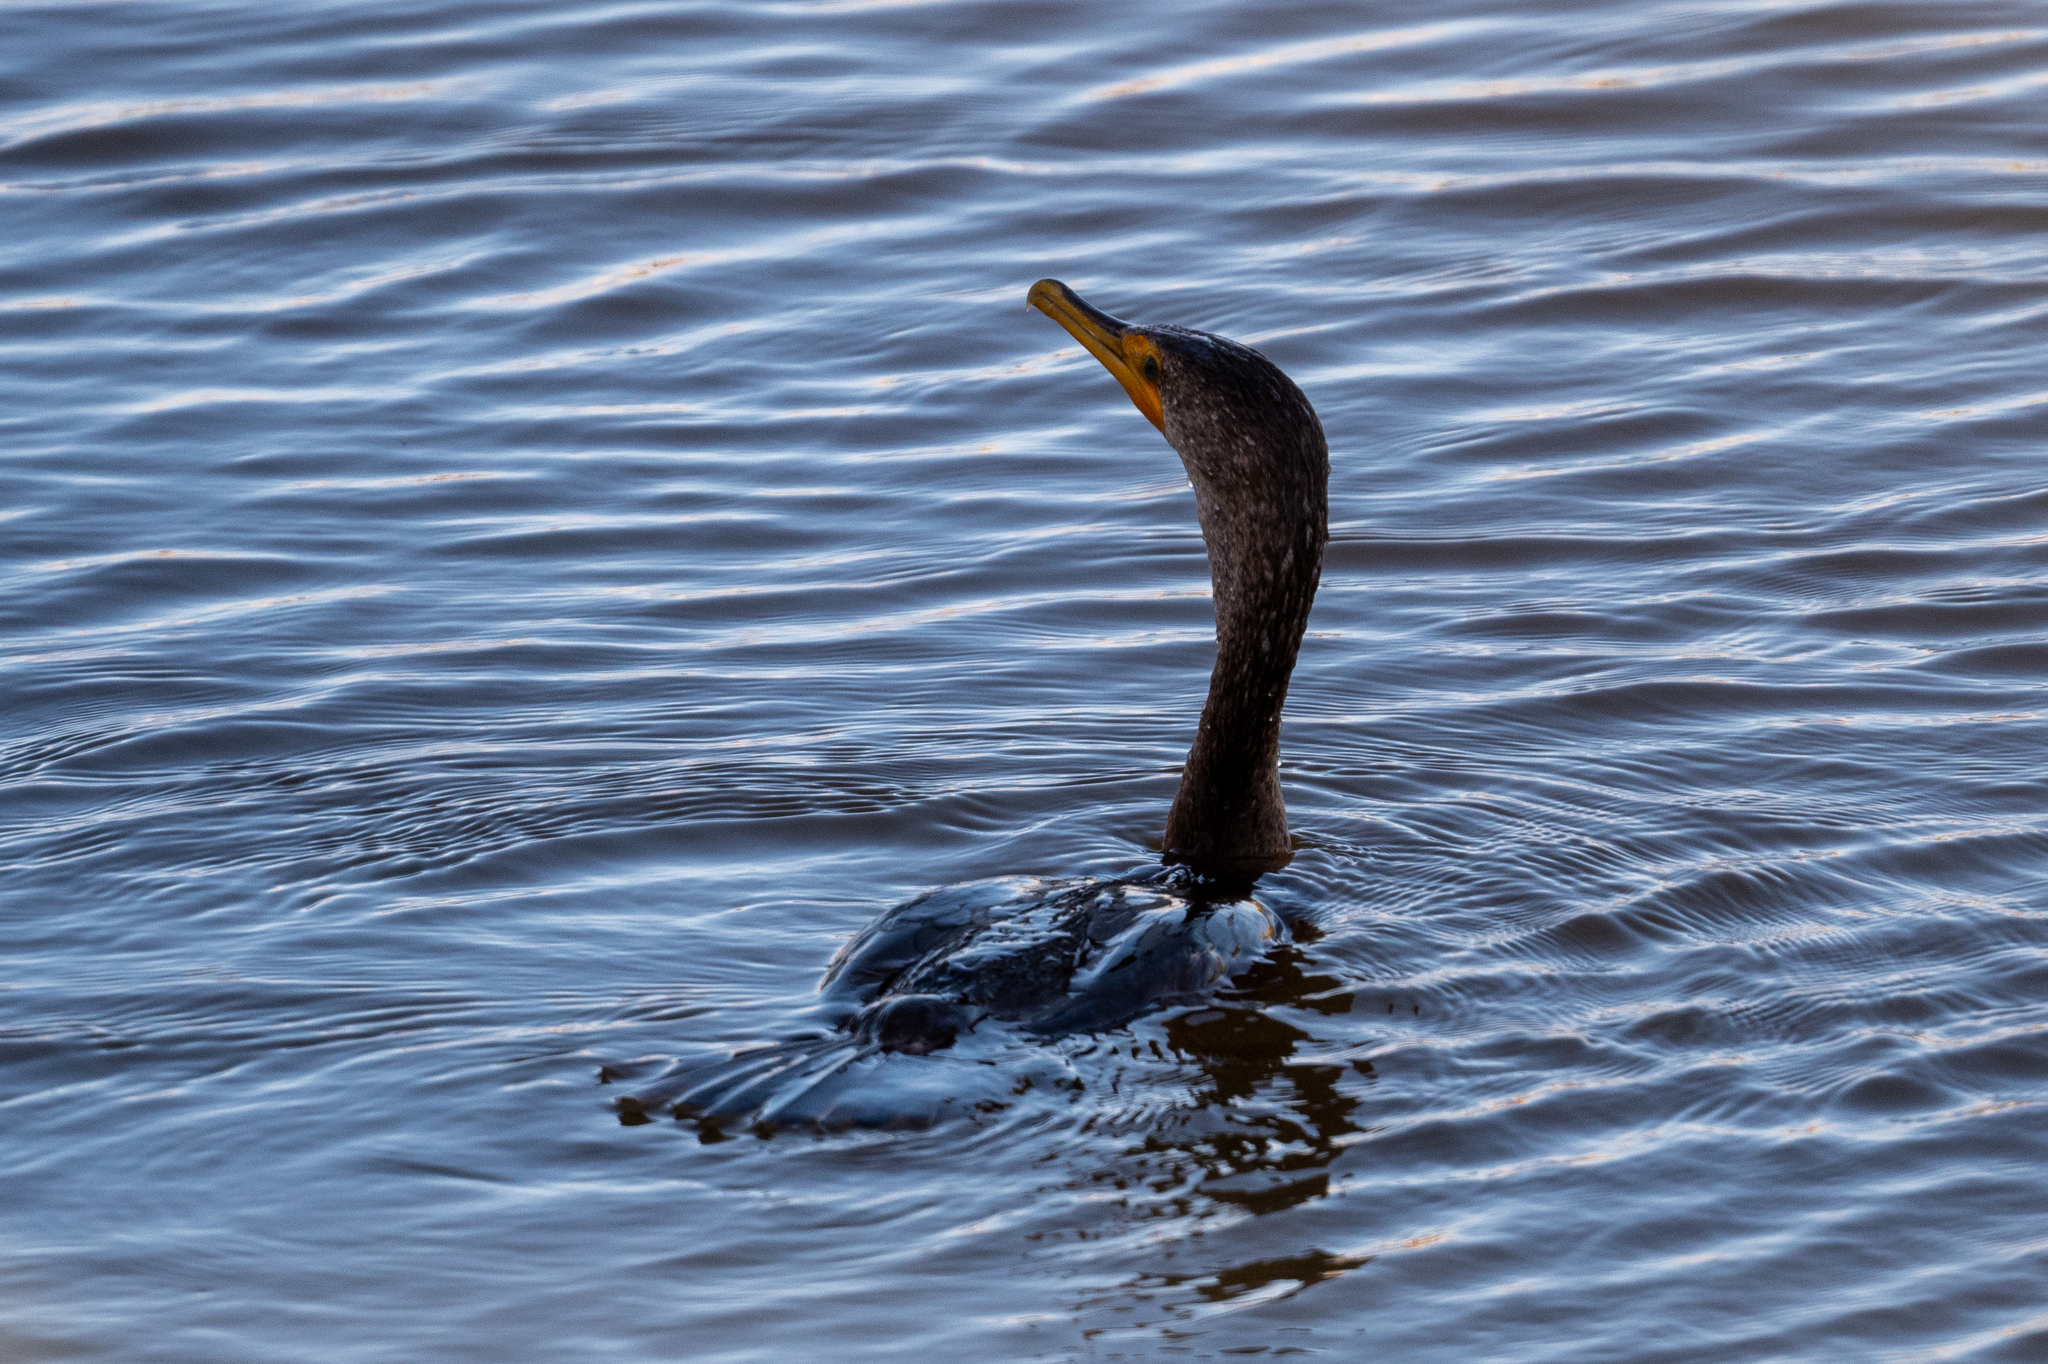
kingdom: Animalia
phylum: Chordata
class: Aves
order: Suliformes
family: Phalacrocoracidae
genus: Phalacrocorax
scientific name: Phalacrocorax auritus
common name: Double-crested cormorant
